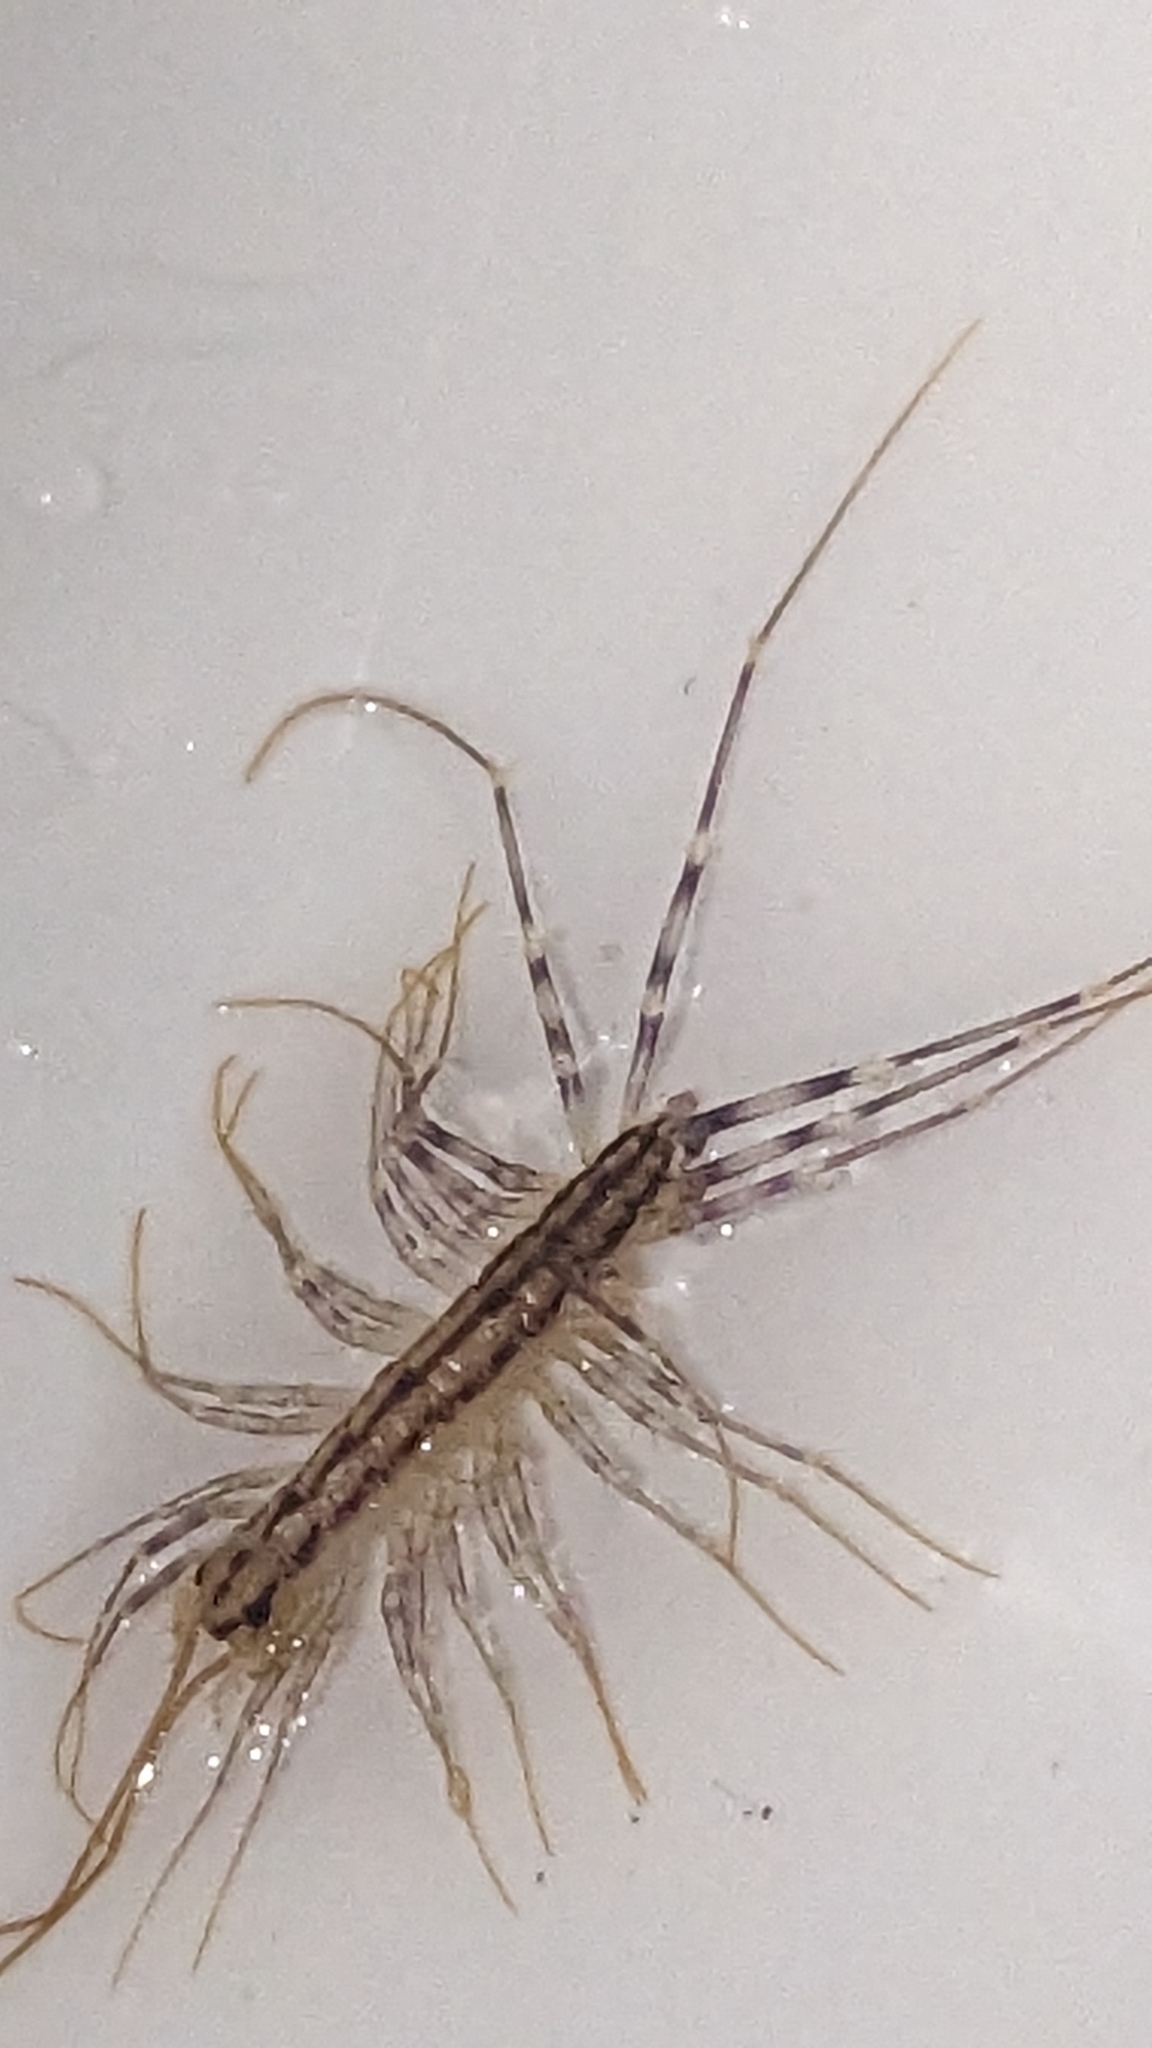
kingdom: Animalia
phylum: Arthropoda
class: Chilopoda
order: Scutigeromorpha
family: Scutigeridae
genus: Scutigera
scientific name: Scutigera coleoptrata
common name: House centipede
